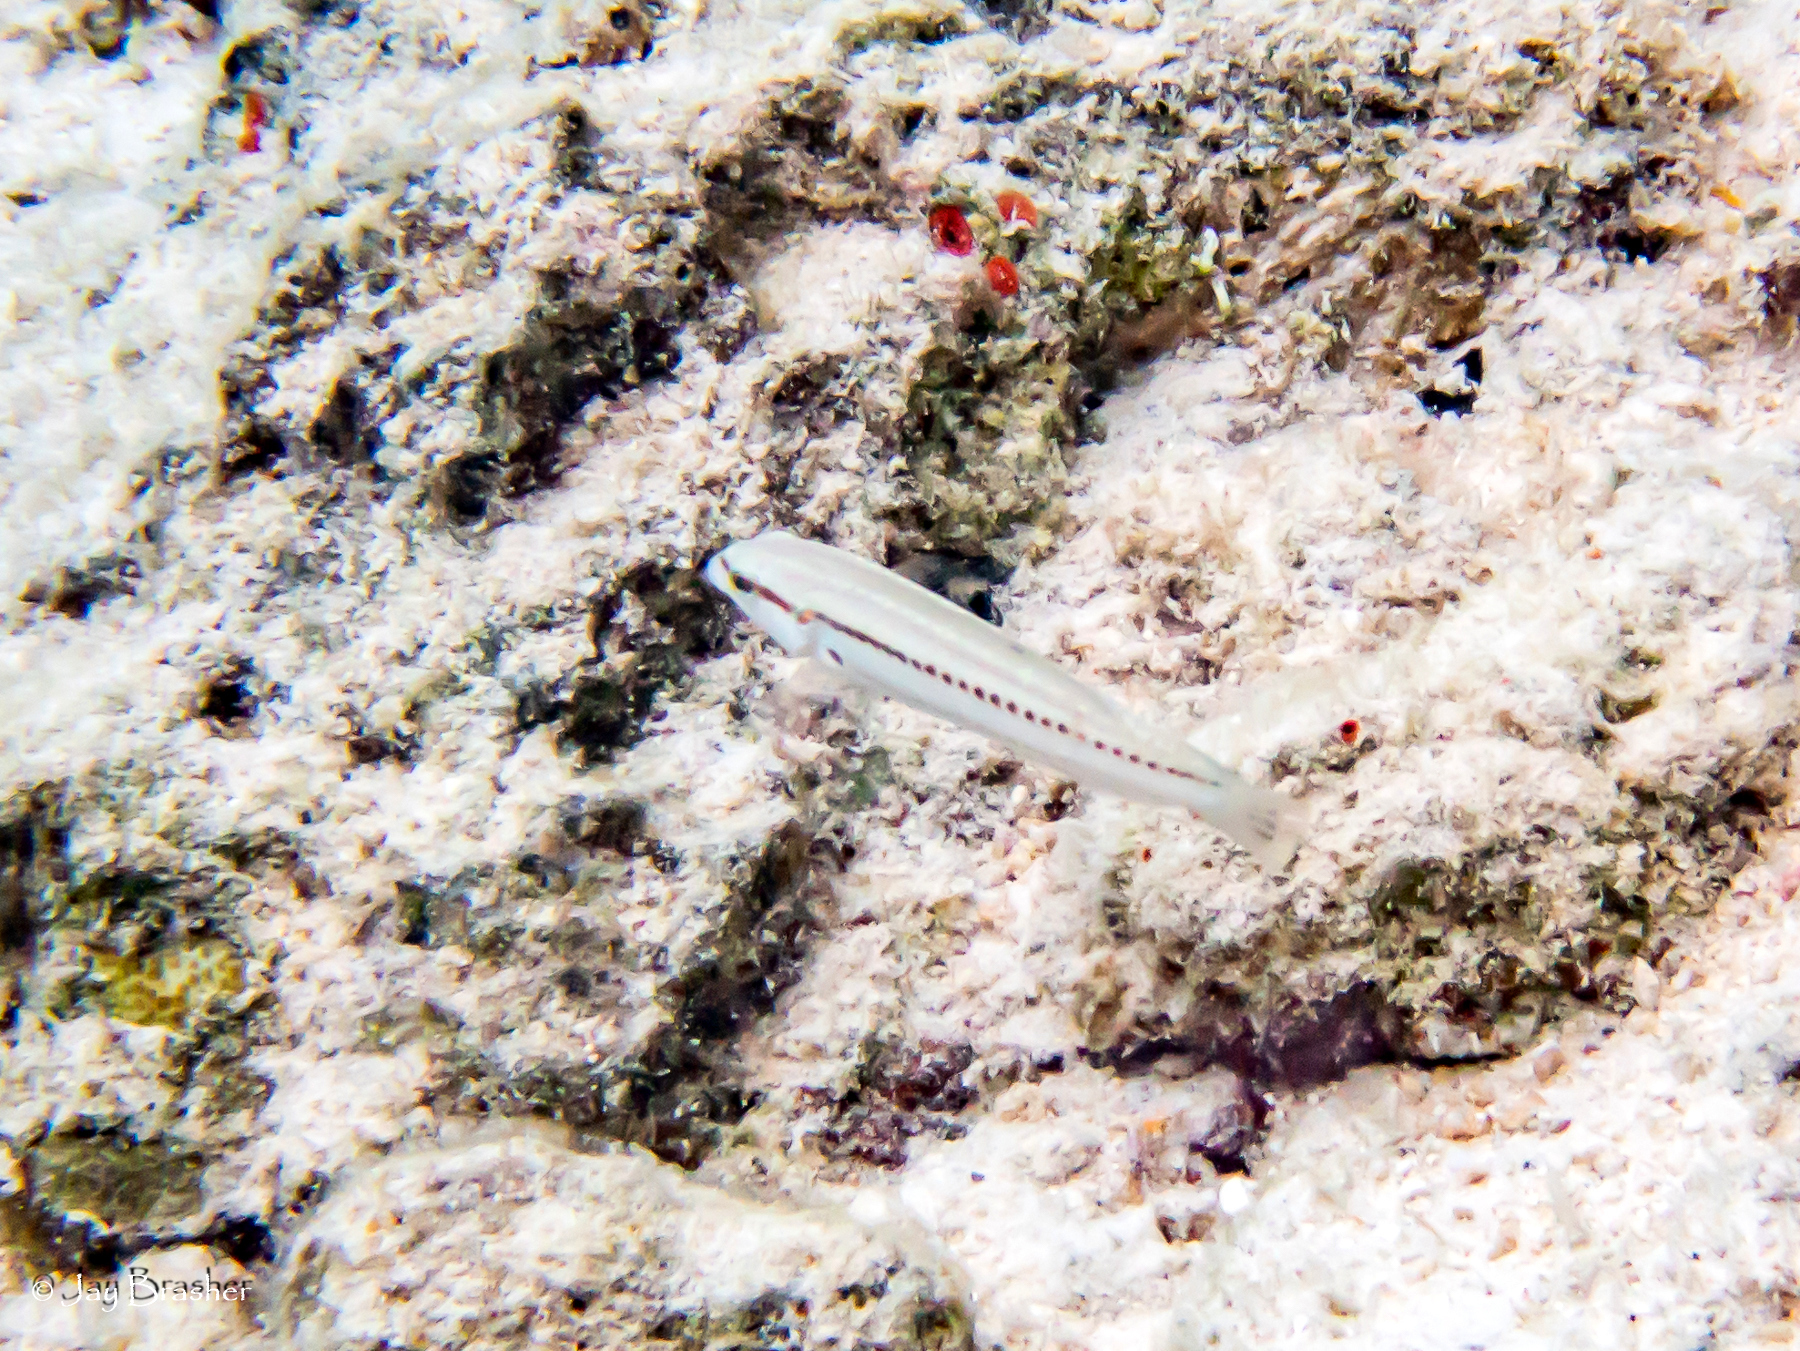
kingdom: Animalia
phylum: Chordata
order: Perciformes
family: Labridae
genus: Halichoeres
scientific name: Halichoeres bivittatus
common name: Slippery dick
